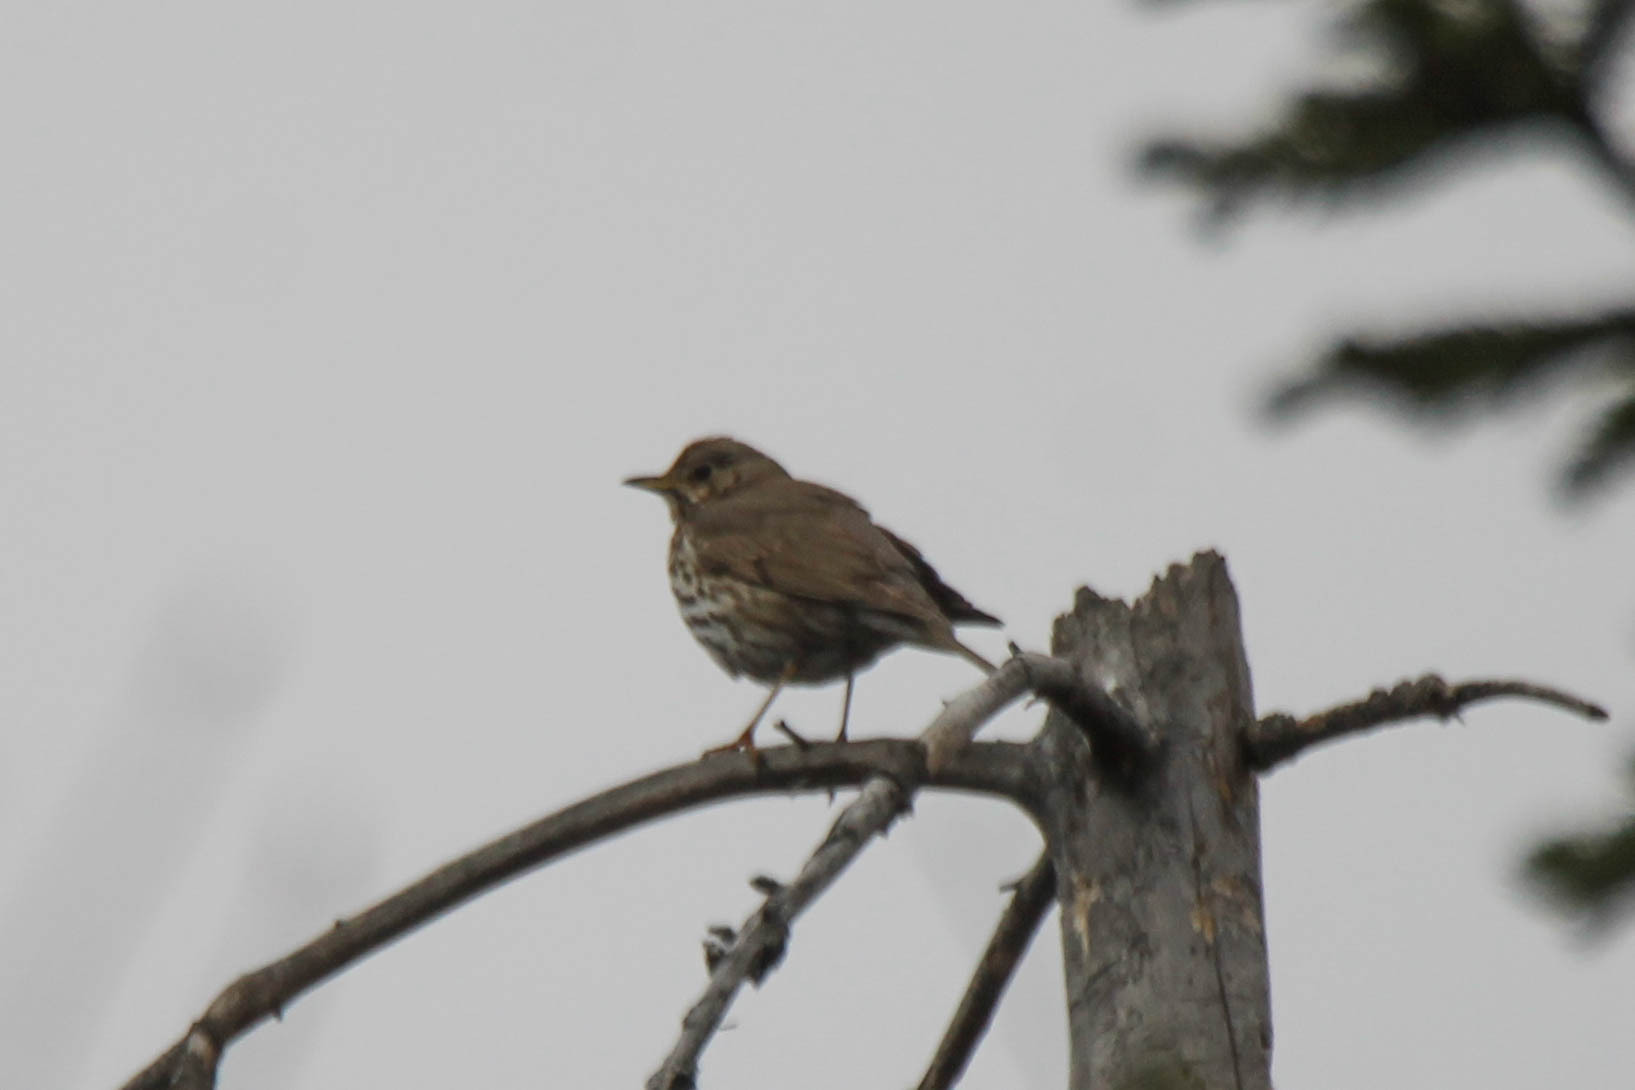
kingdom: Animalia
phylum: Chordata
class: Aves
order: Passeriformes
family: Turdidae
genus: Turdus
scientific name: Turdus philomelos
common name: Song thrush
